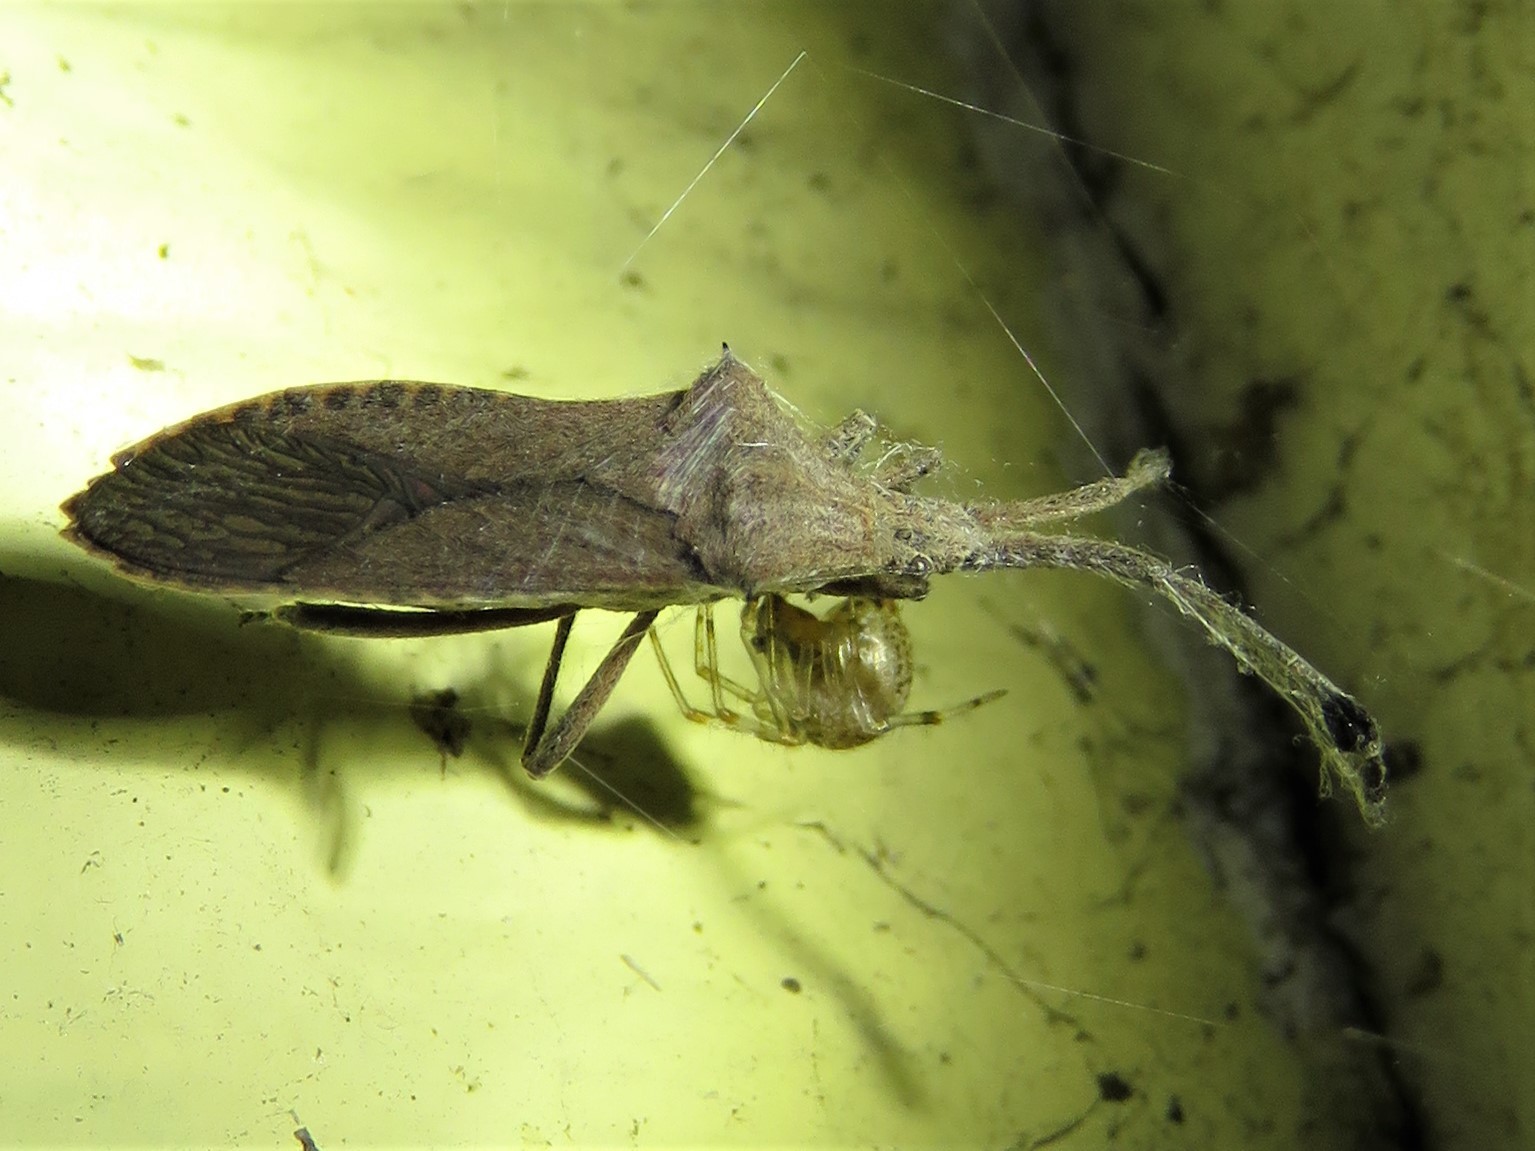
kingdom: Animalia
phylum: Arthropoda
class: Insecta
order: Hemiptera
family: Coreidae
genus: Chariesterus
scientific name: Chariesterus antennator
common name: Flat horned coreid
